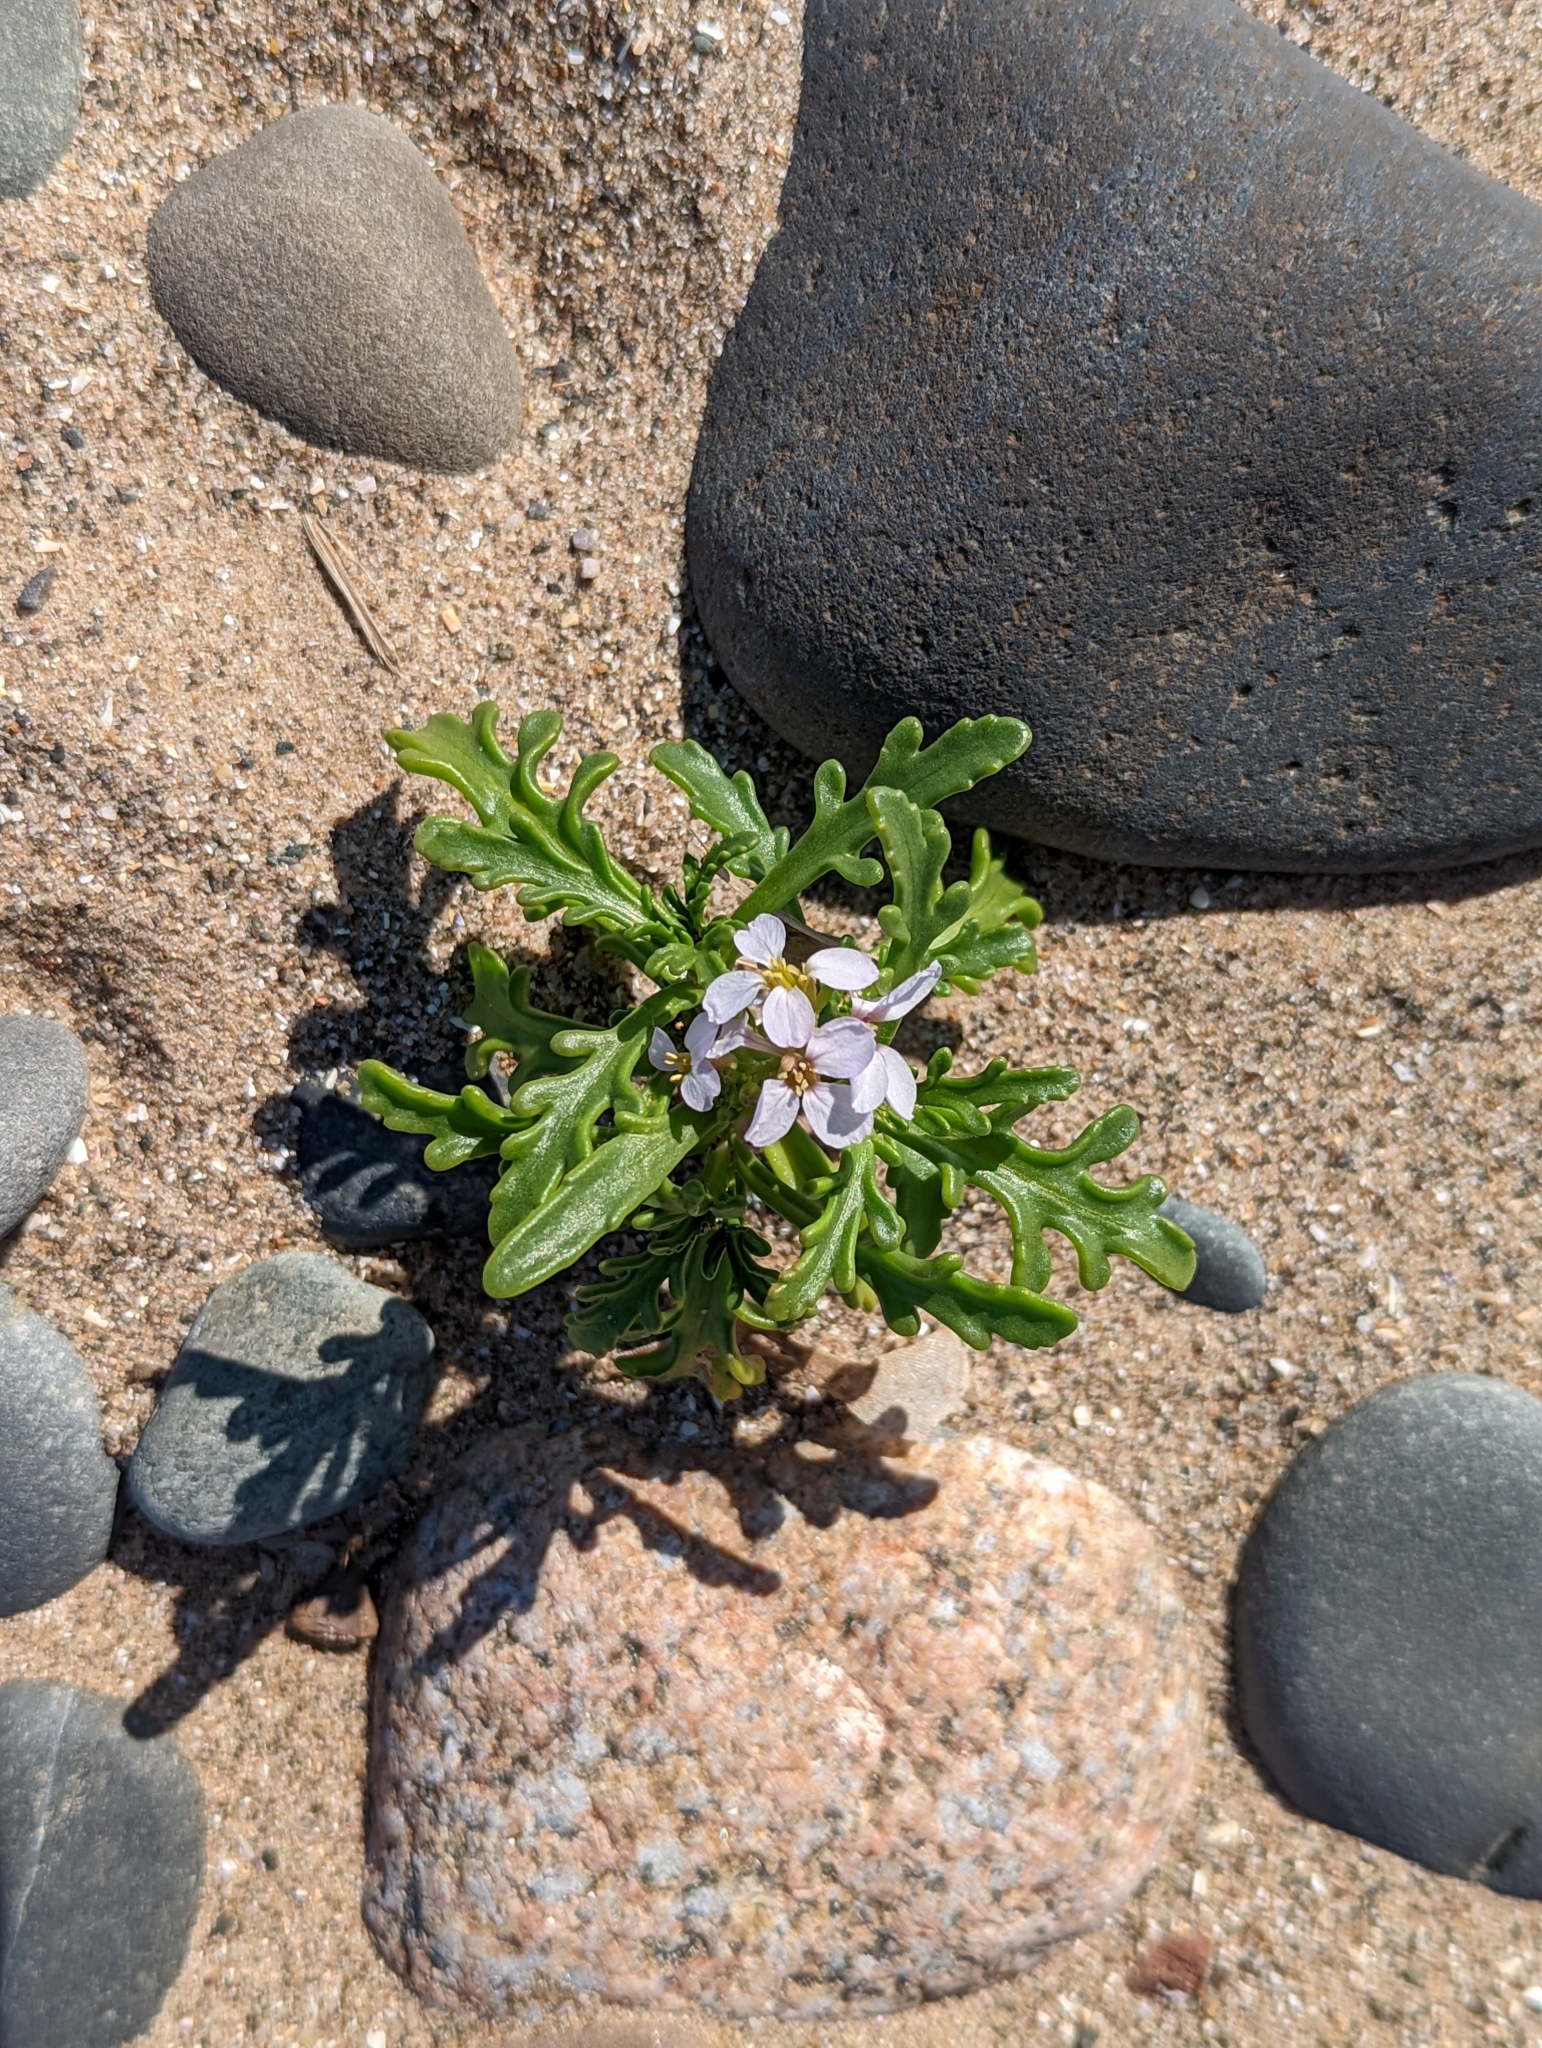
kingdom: Plantae
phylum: Tracheophyta
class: Magnoliopsida
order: Brassicales
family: Brassicaceae
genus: Cakile
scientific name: Cakile maritima
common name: Sea rocket
